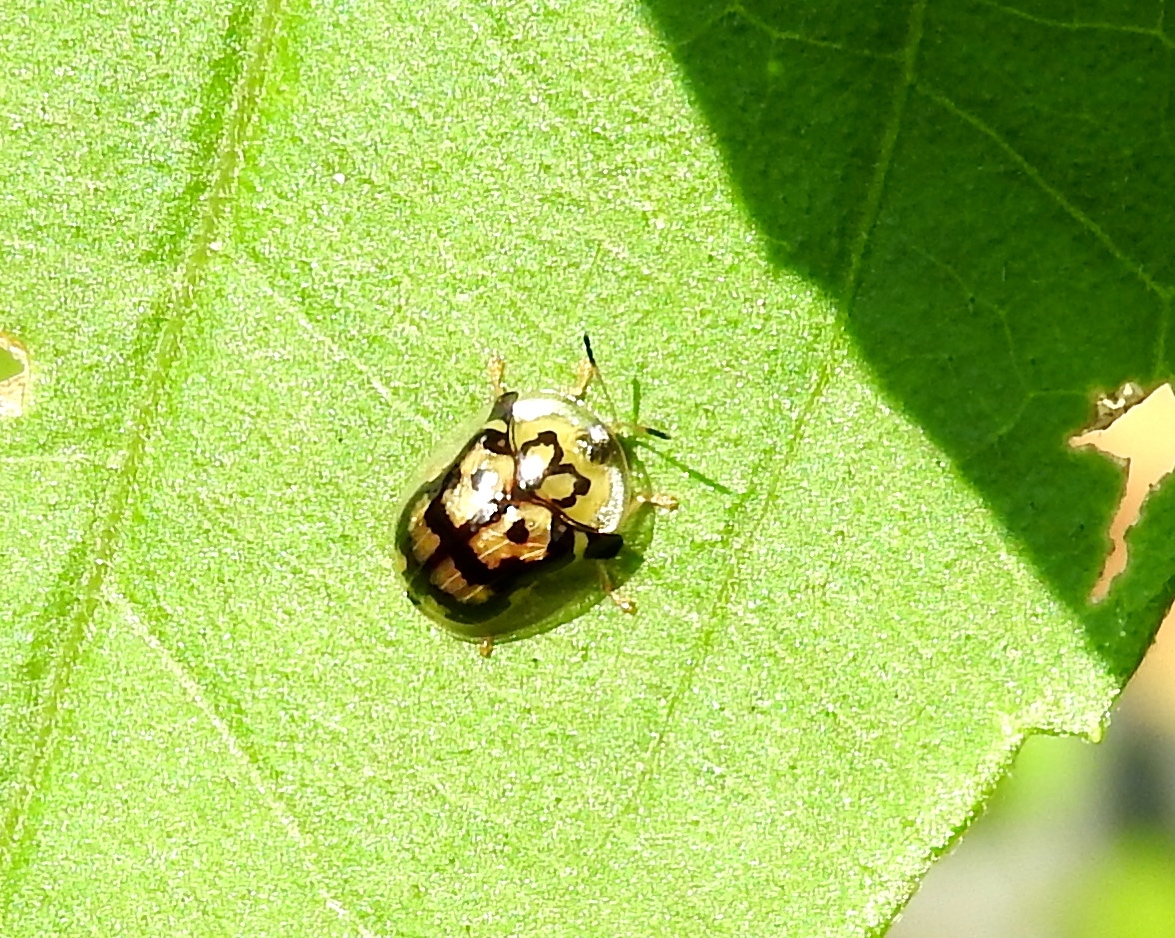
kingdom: Animalia
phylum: Arthropoda
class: Insecta
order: Coleoptera
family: Chrysomelidae
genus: Deloyala
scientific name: Deloyala lecontei
